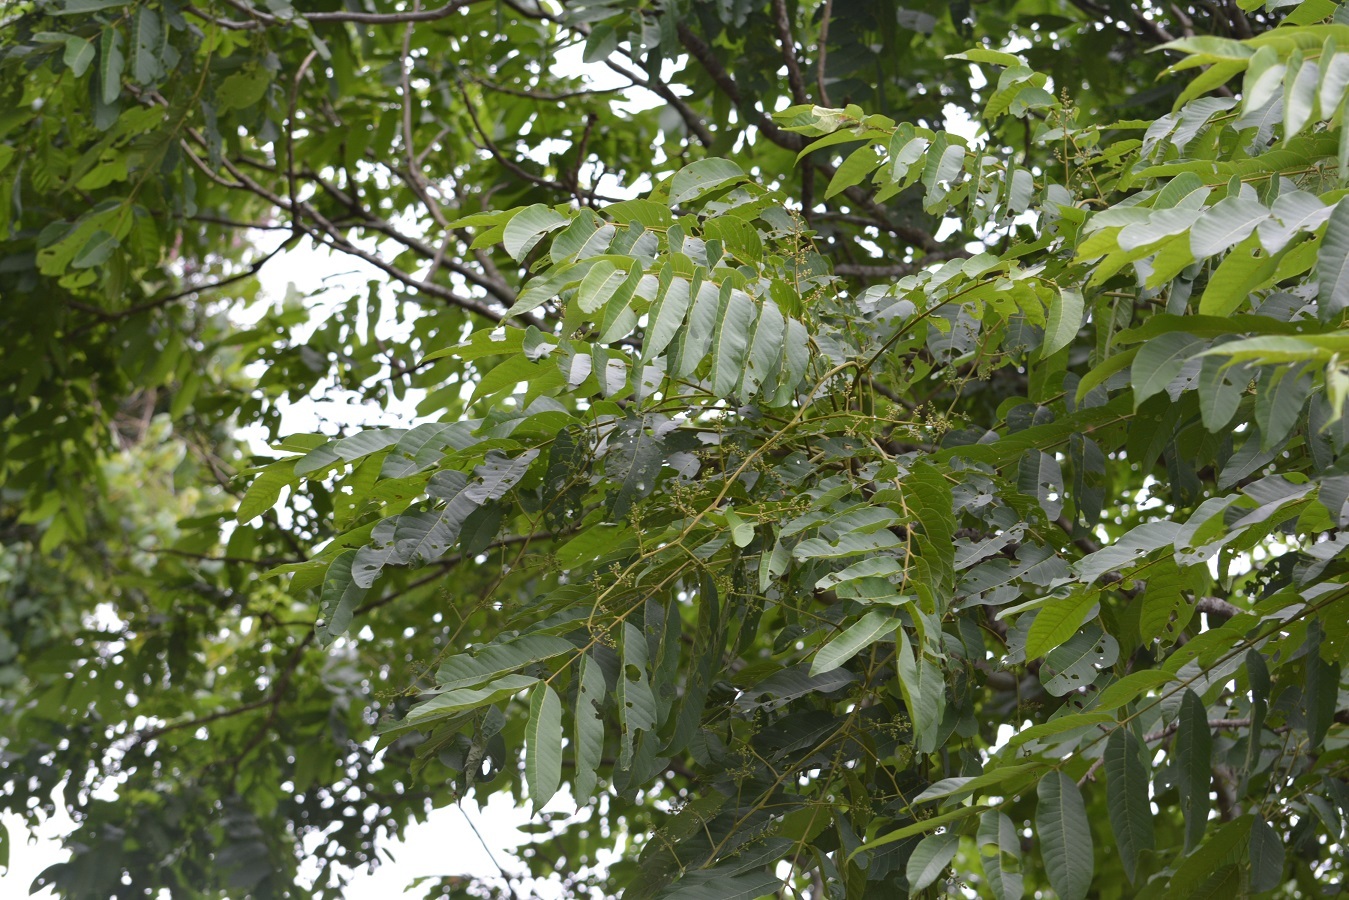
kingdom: Plantae
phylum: Tracheophyta
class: Magnoliopsida
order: Sapindales
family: Meliaceae
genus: Cedrela
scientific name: Cedrela oaxacensis
